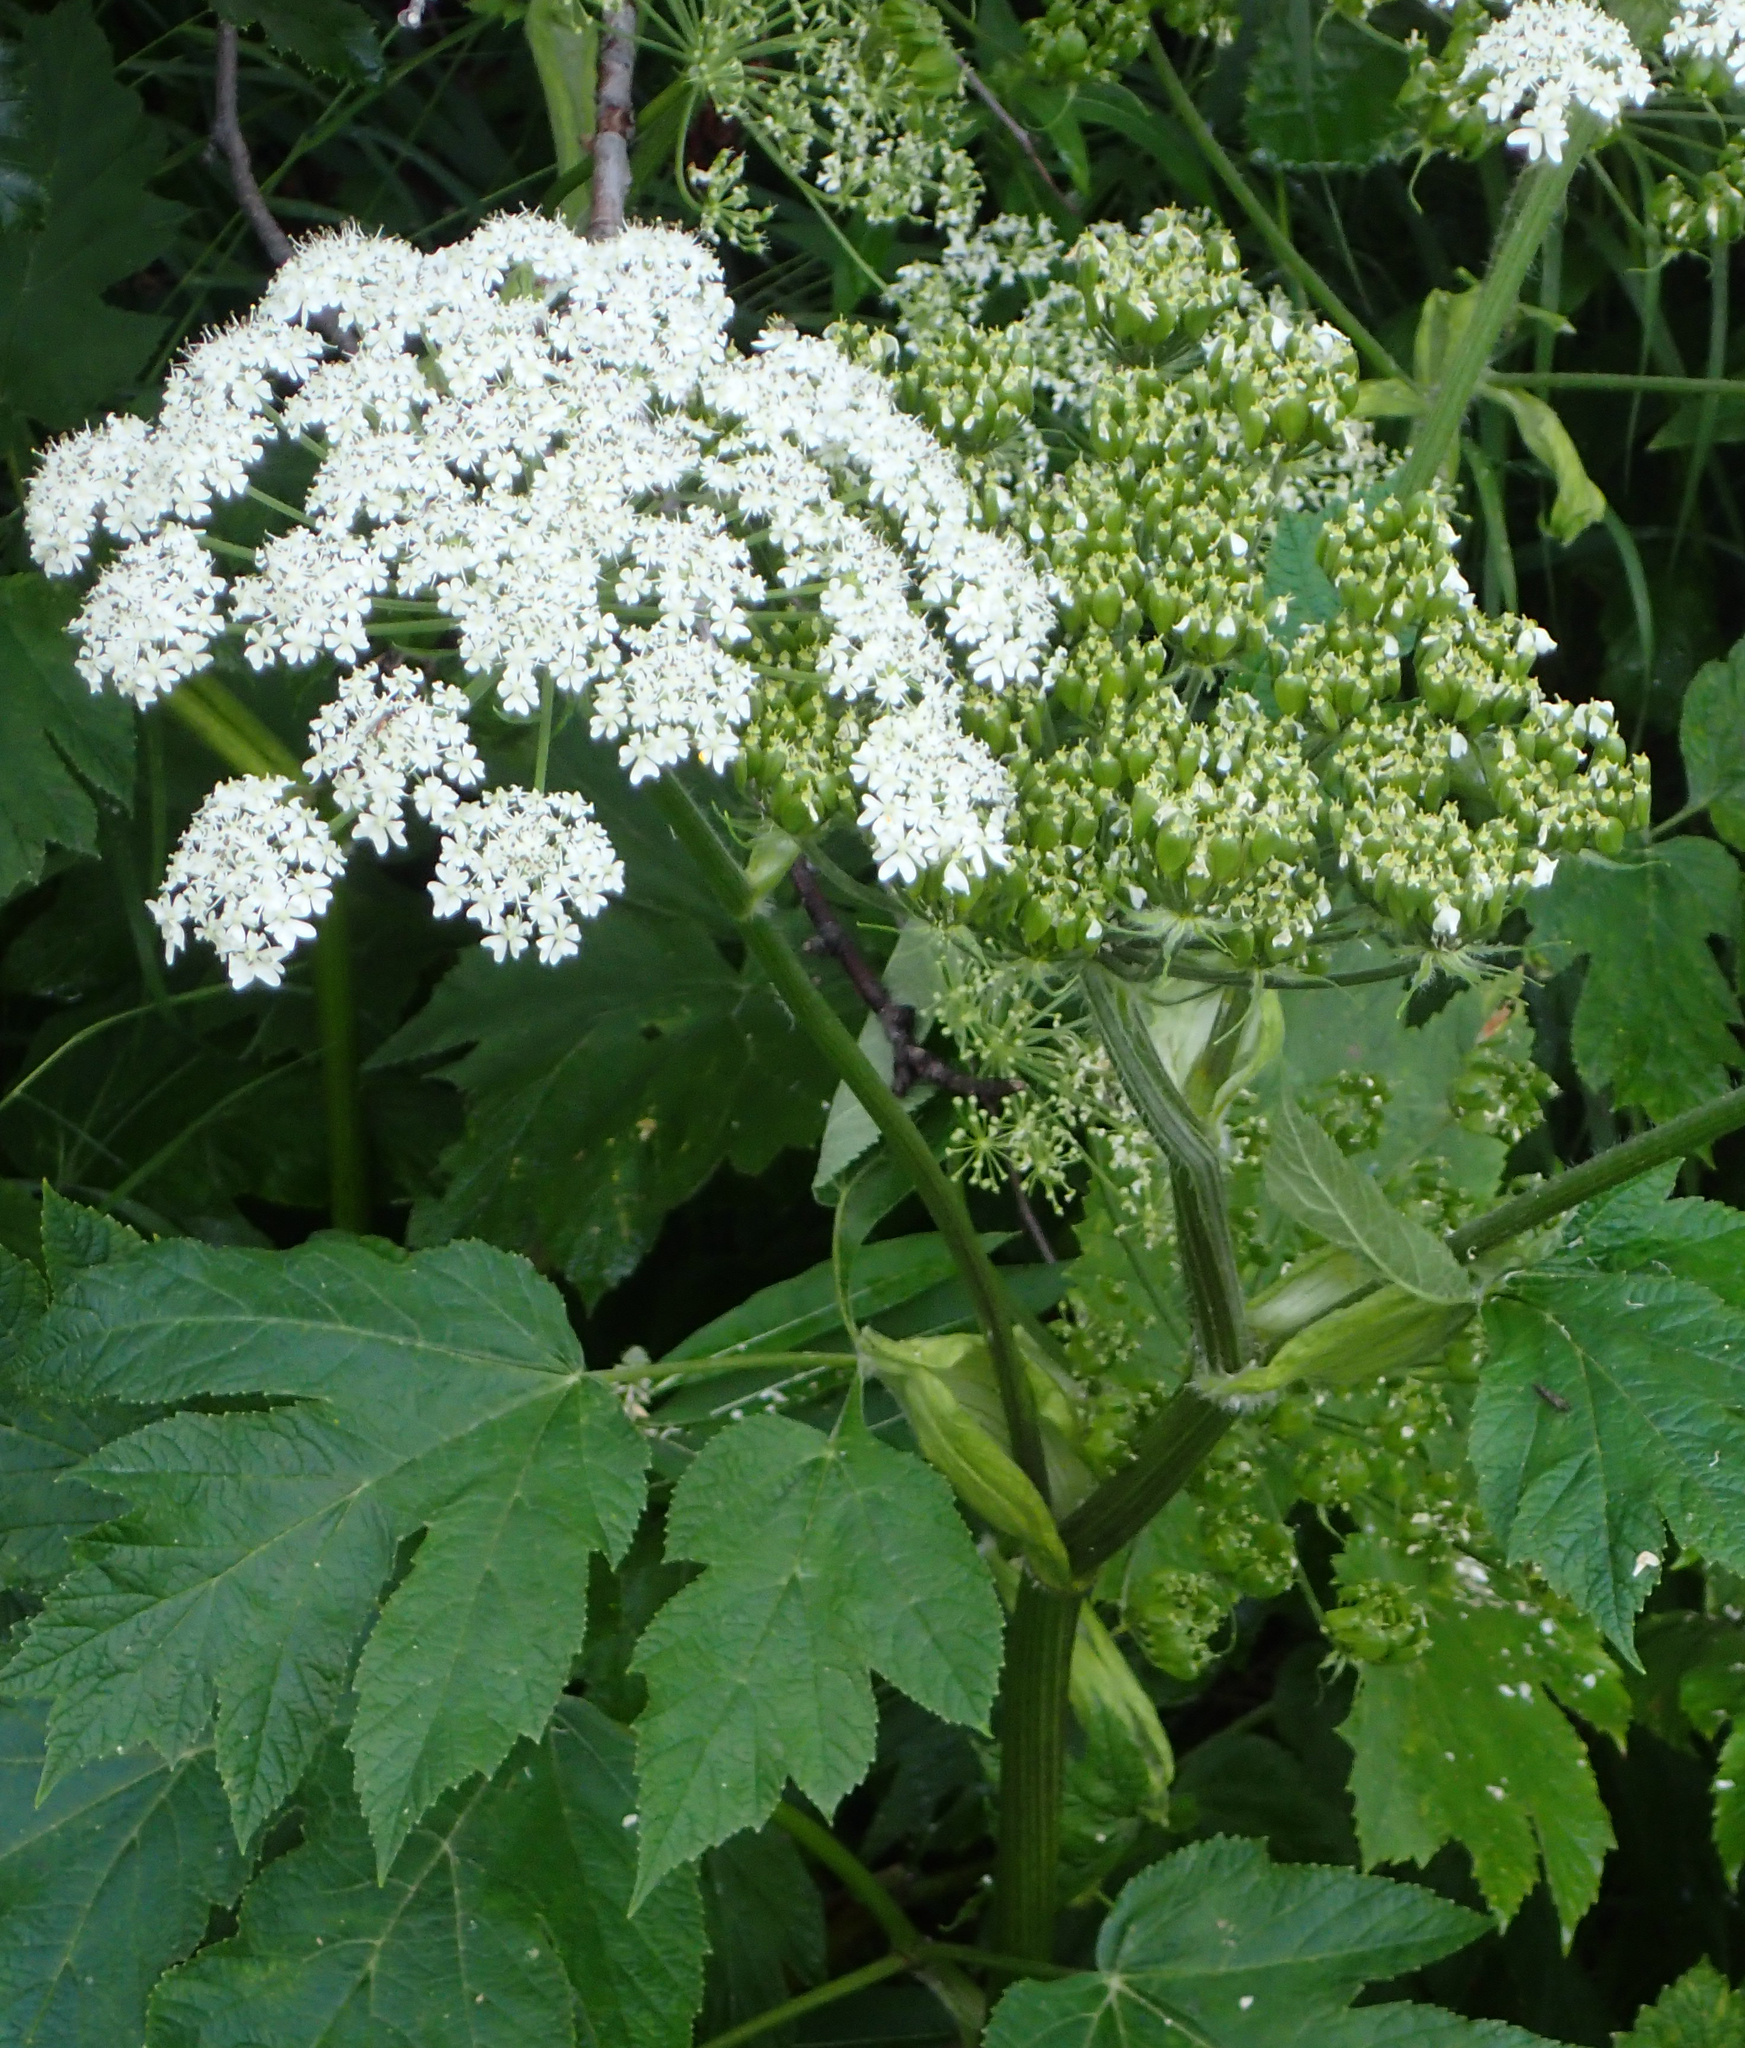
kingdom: Plantae
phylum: Tracheophyta
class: Magnoliopsida
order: Apiales
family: Apiaceae
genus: Heracleum
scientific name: Heracleum maximum
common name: American cow parsnip
